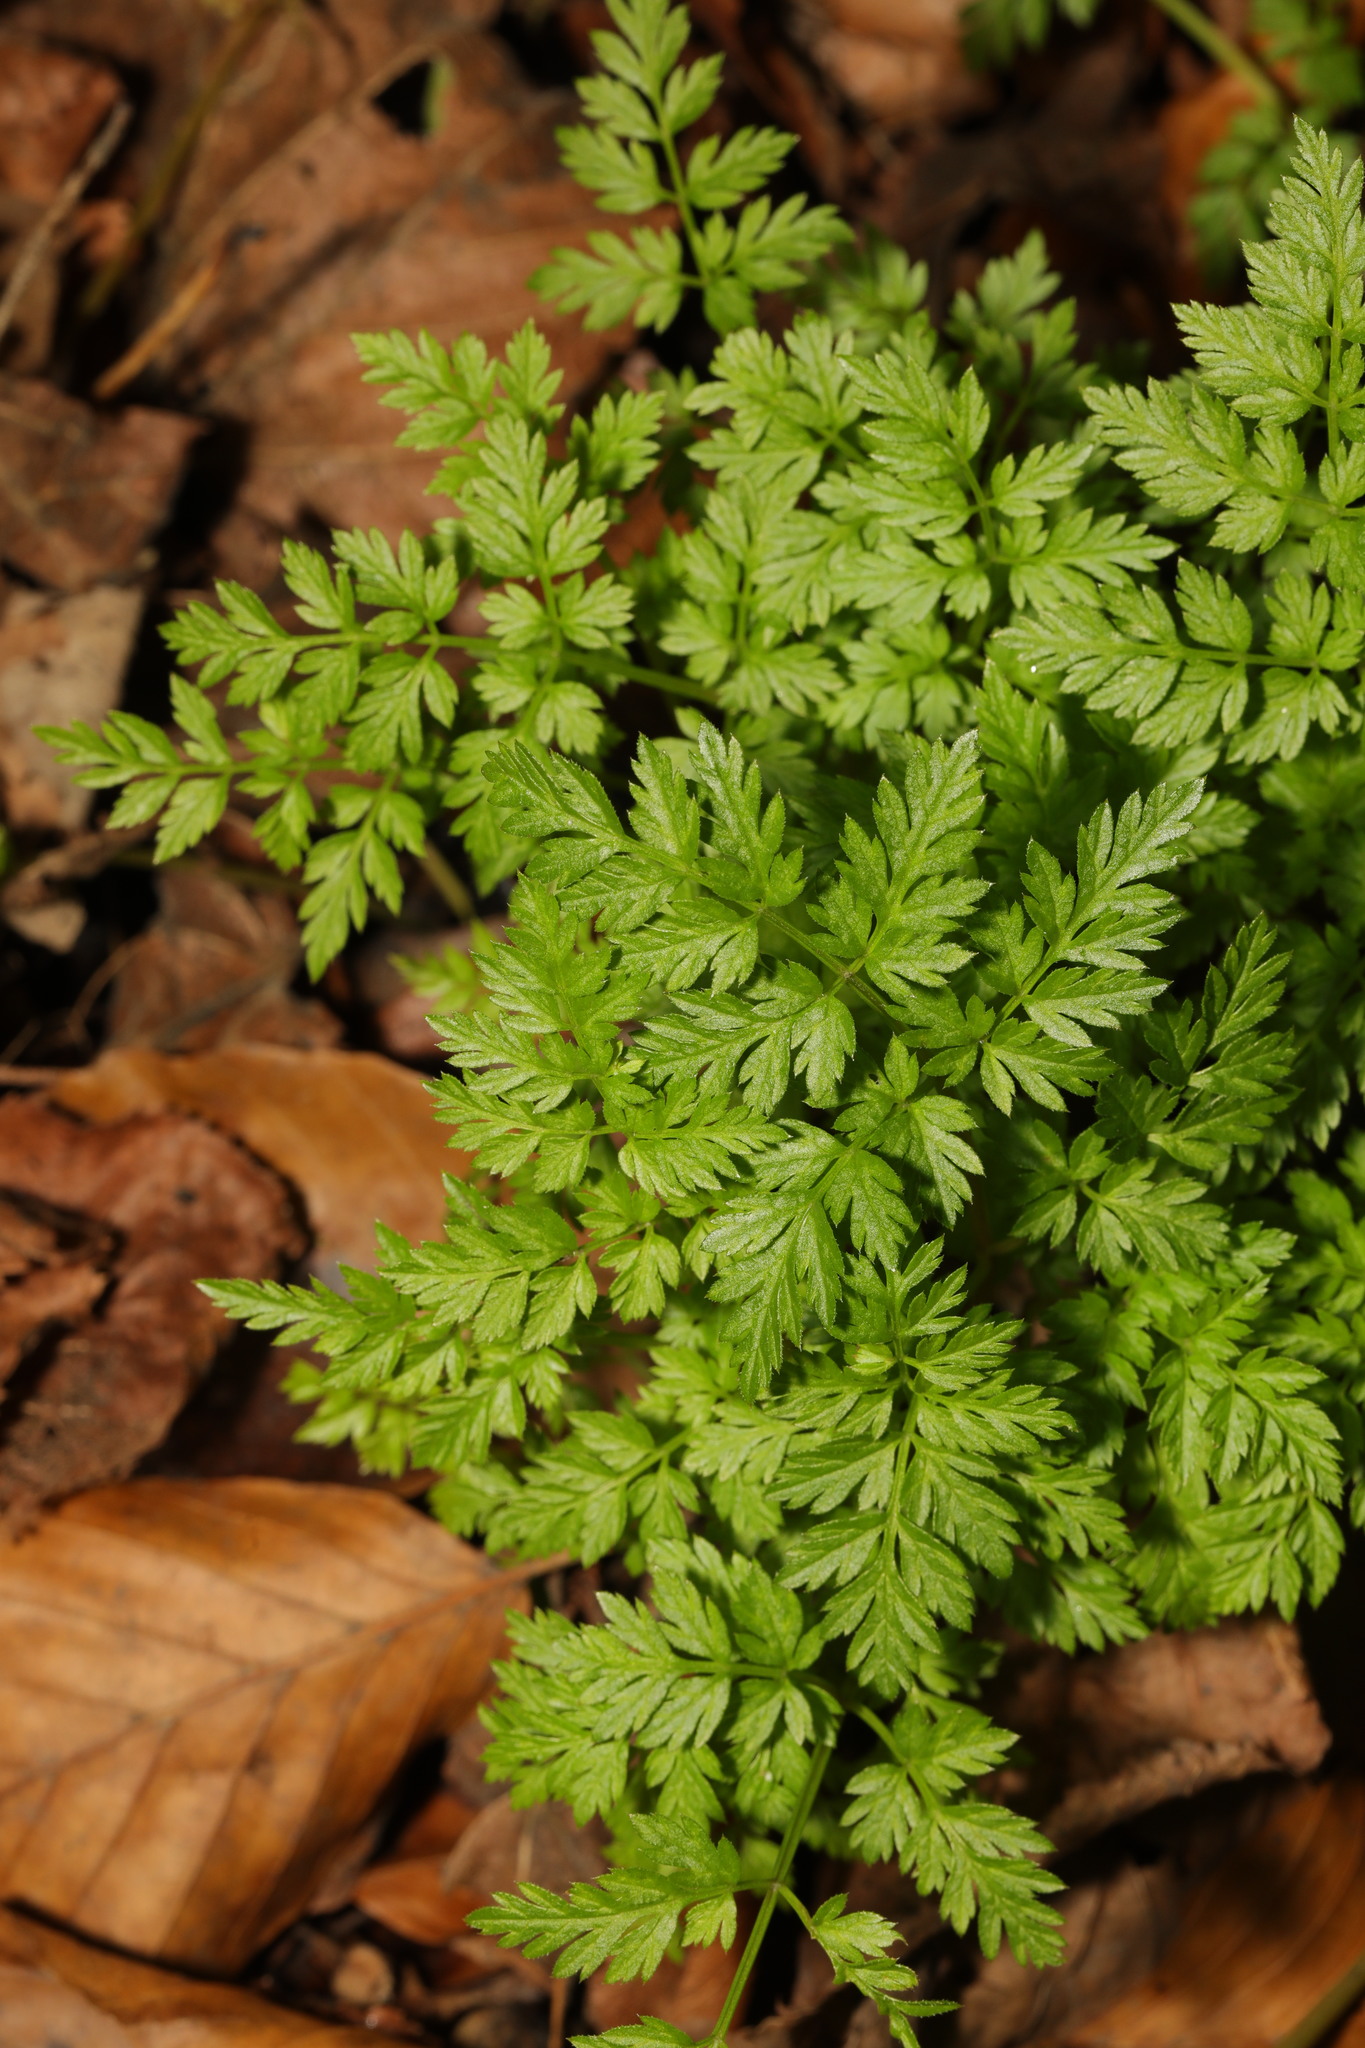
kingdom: Plantae
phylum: Tracheophyta
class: Magnoliopsida
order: Apiales
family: Apiaceae
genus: Anthriscus
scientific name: Anthriscus sylvestris
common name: Cow parsley
